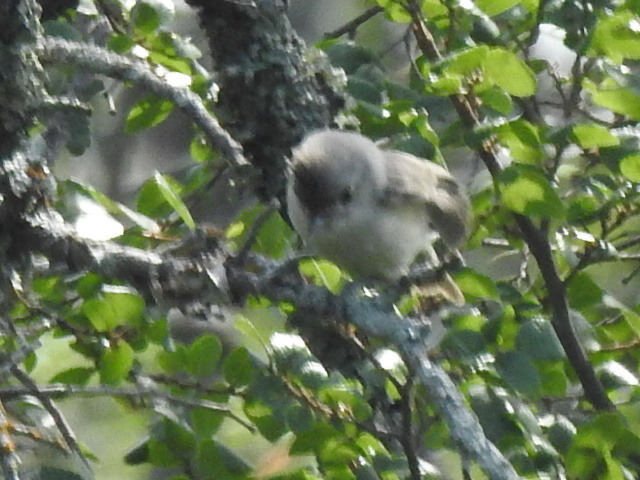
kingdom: Animalia
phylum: Chordata
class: Aves
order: Passeriformes
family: Paridae
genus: Baeolophus
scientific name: Baeolophus atricristatus
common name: Black-crested titmouse
